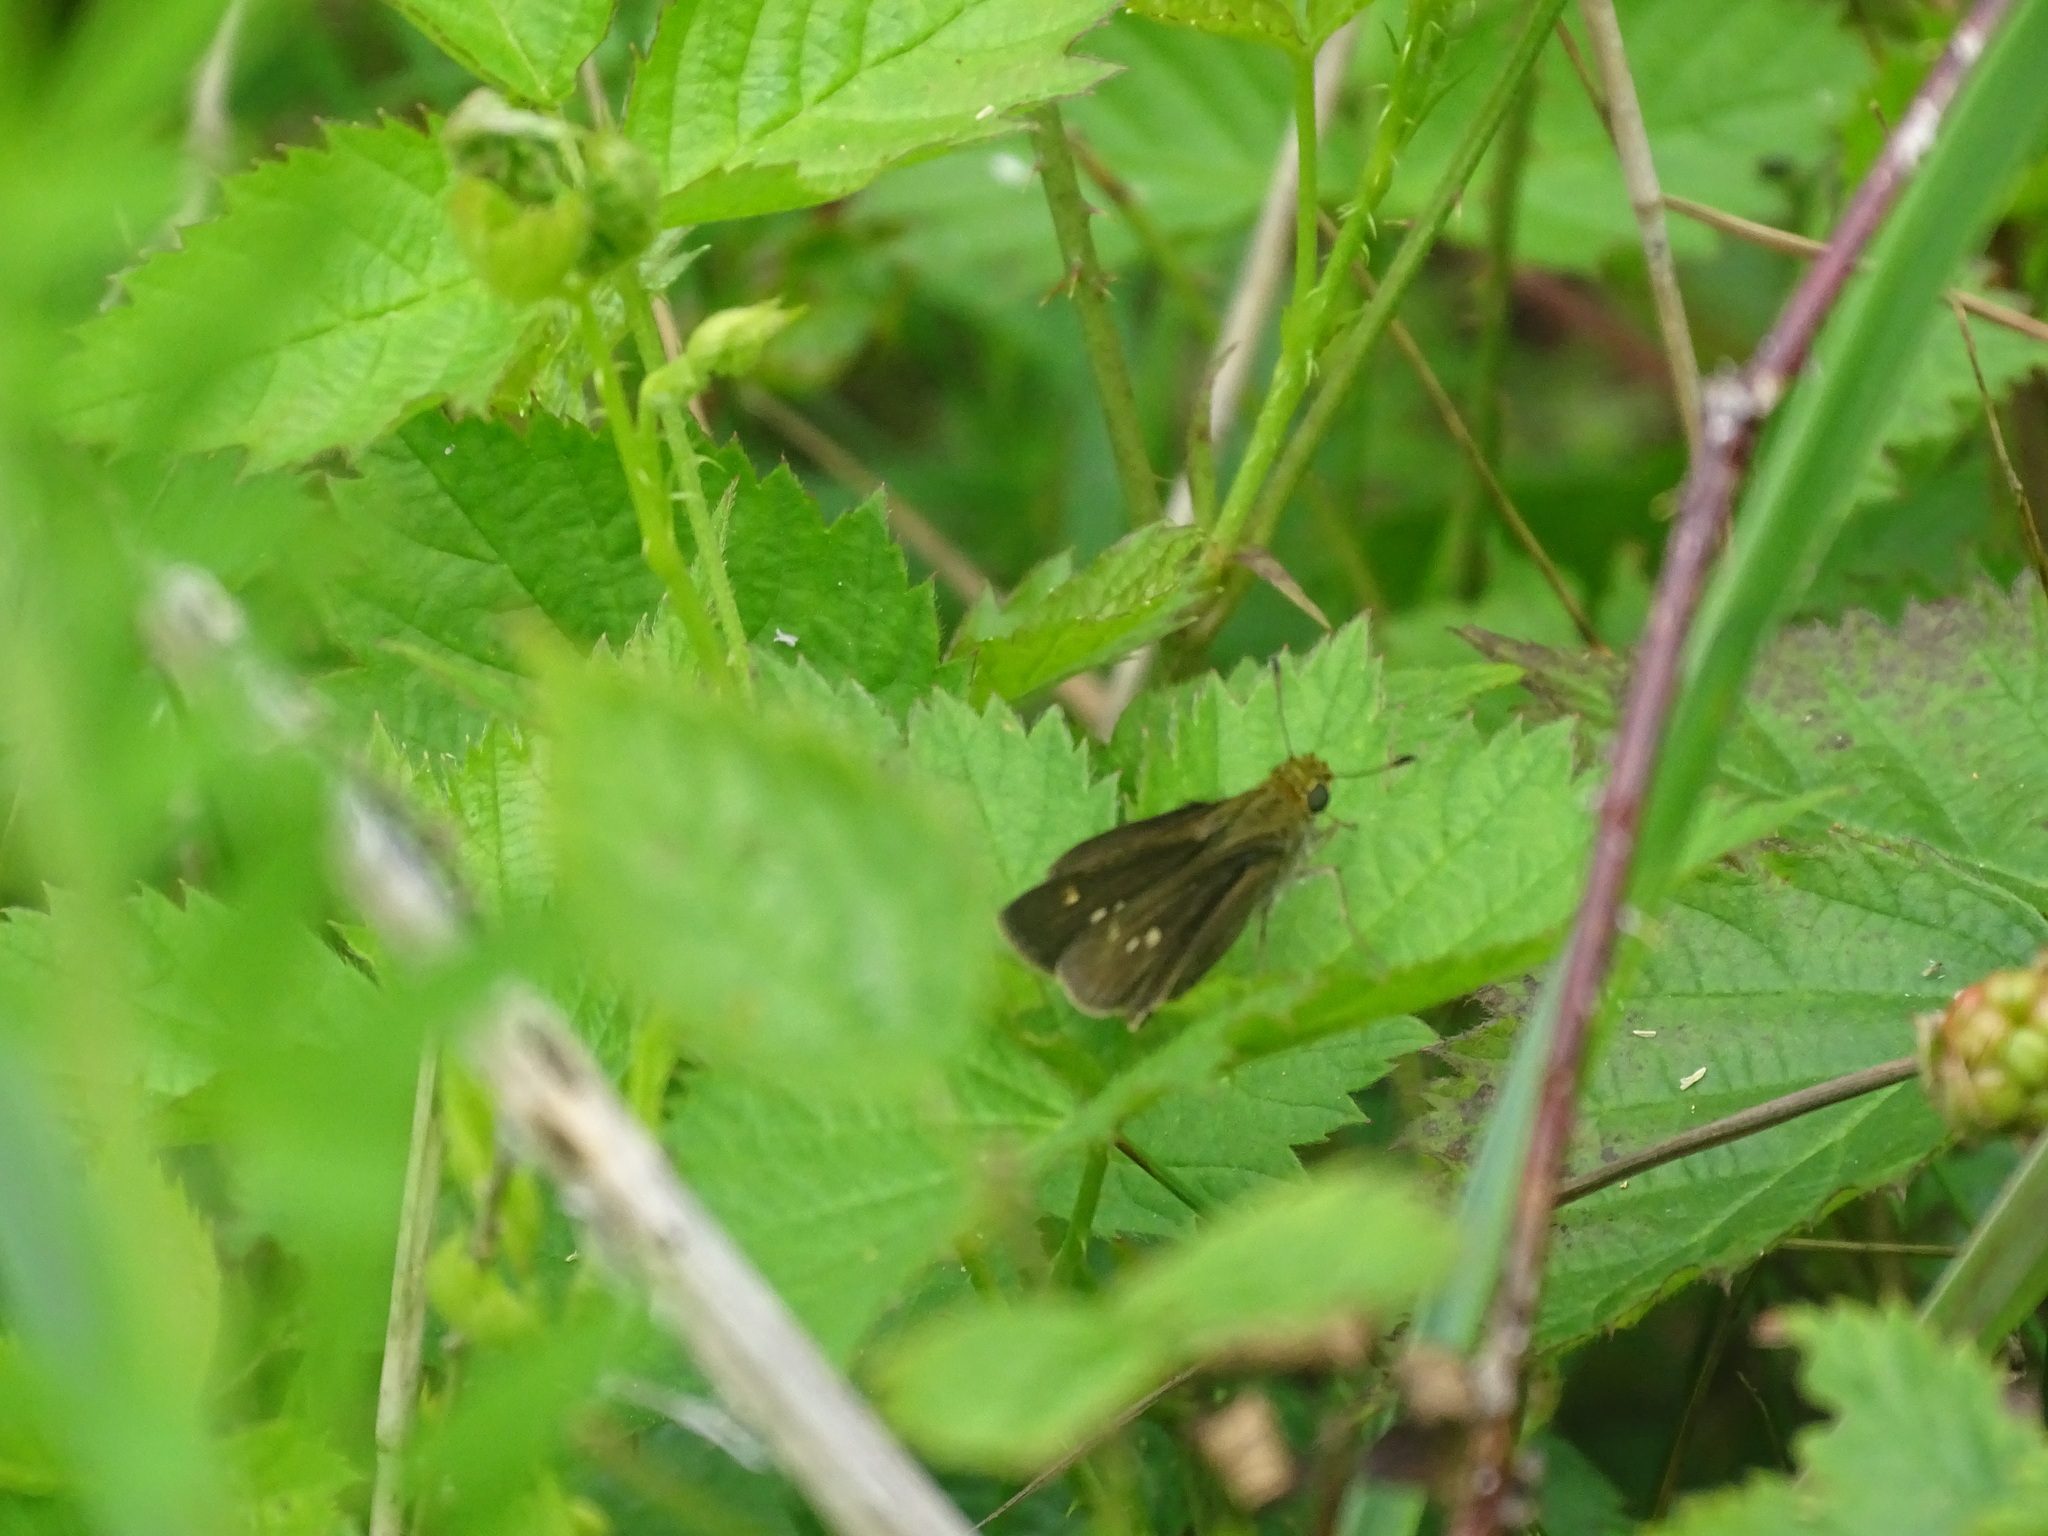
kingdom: Animalia
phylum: Arthropoda
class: Insecta
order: Lepidoptera
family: Hesperiidae
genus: Euphyes
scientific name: Euphyes vestris
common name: Dun skipper
